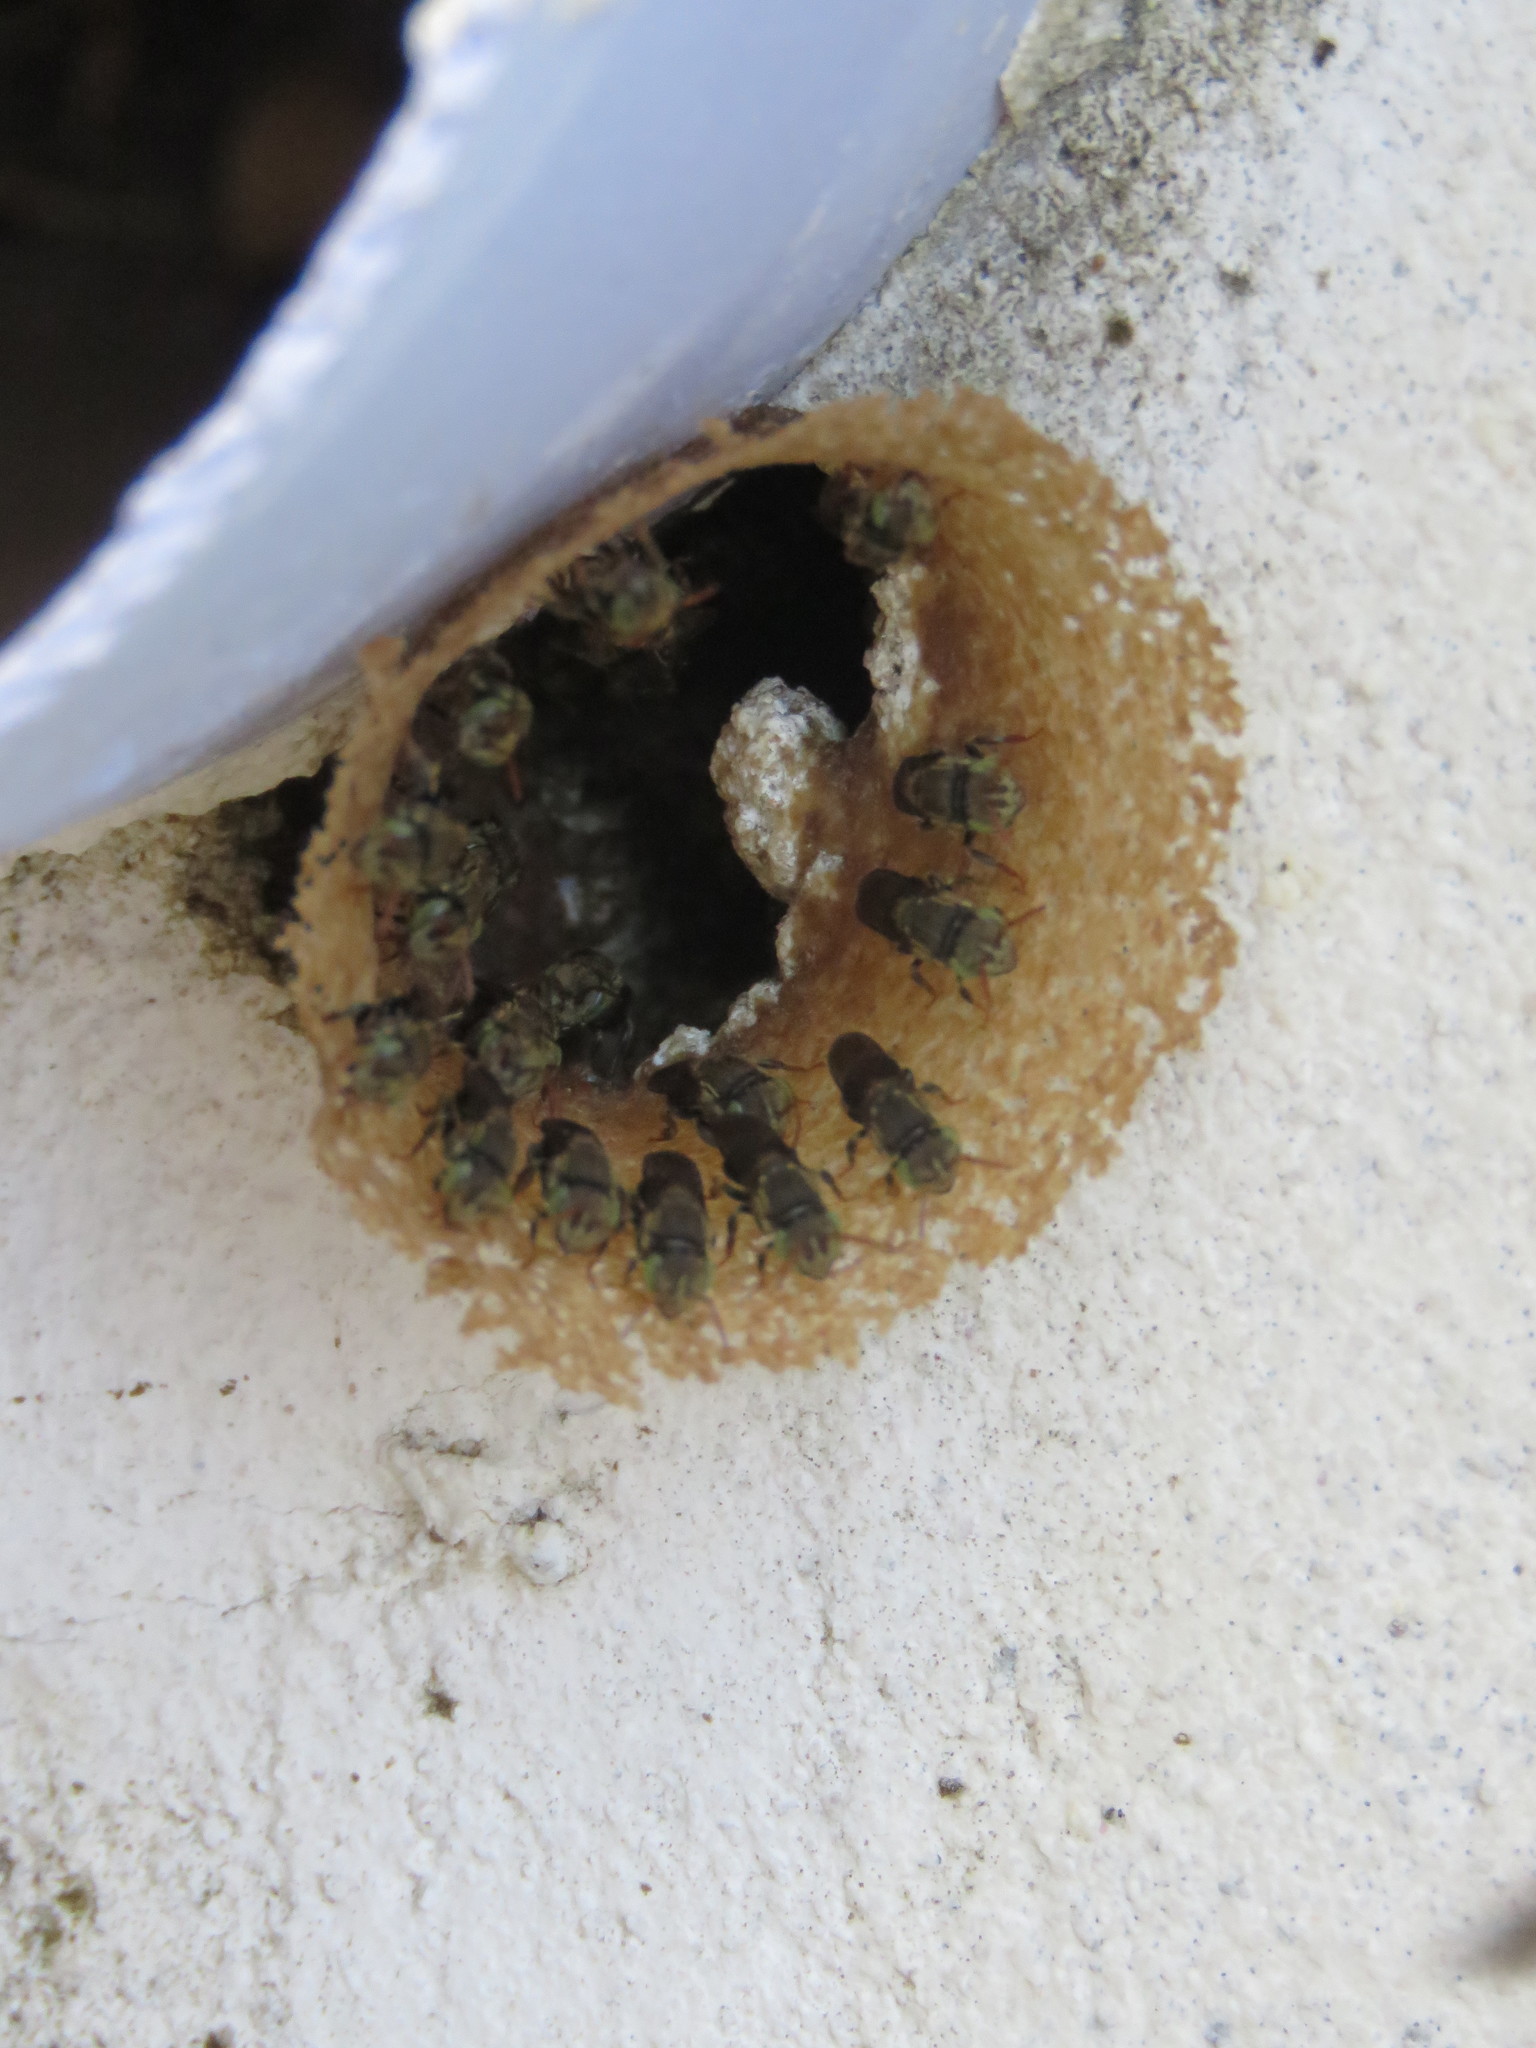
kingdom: Animalia
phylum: Arthropoda
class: Insecta
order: Hymenoptera
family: Apidae
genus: Nannotrigona
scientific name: Nannotrigona perilampoides
